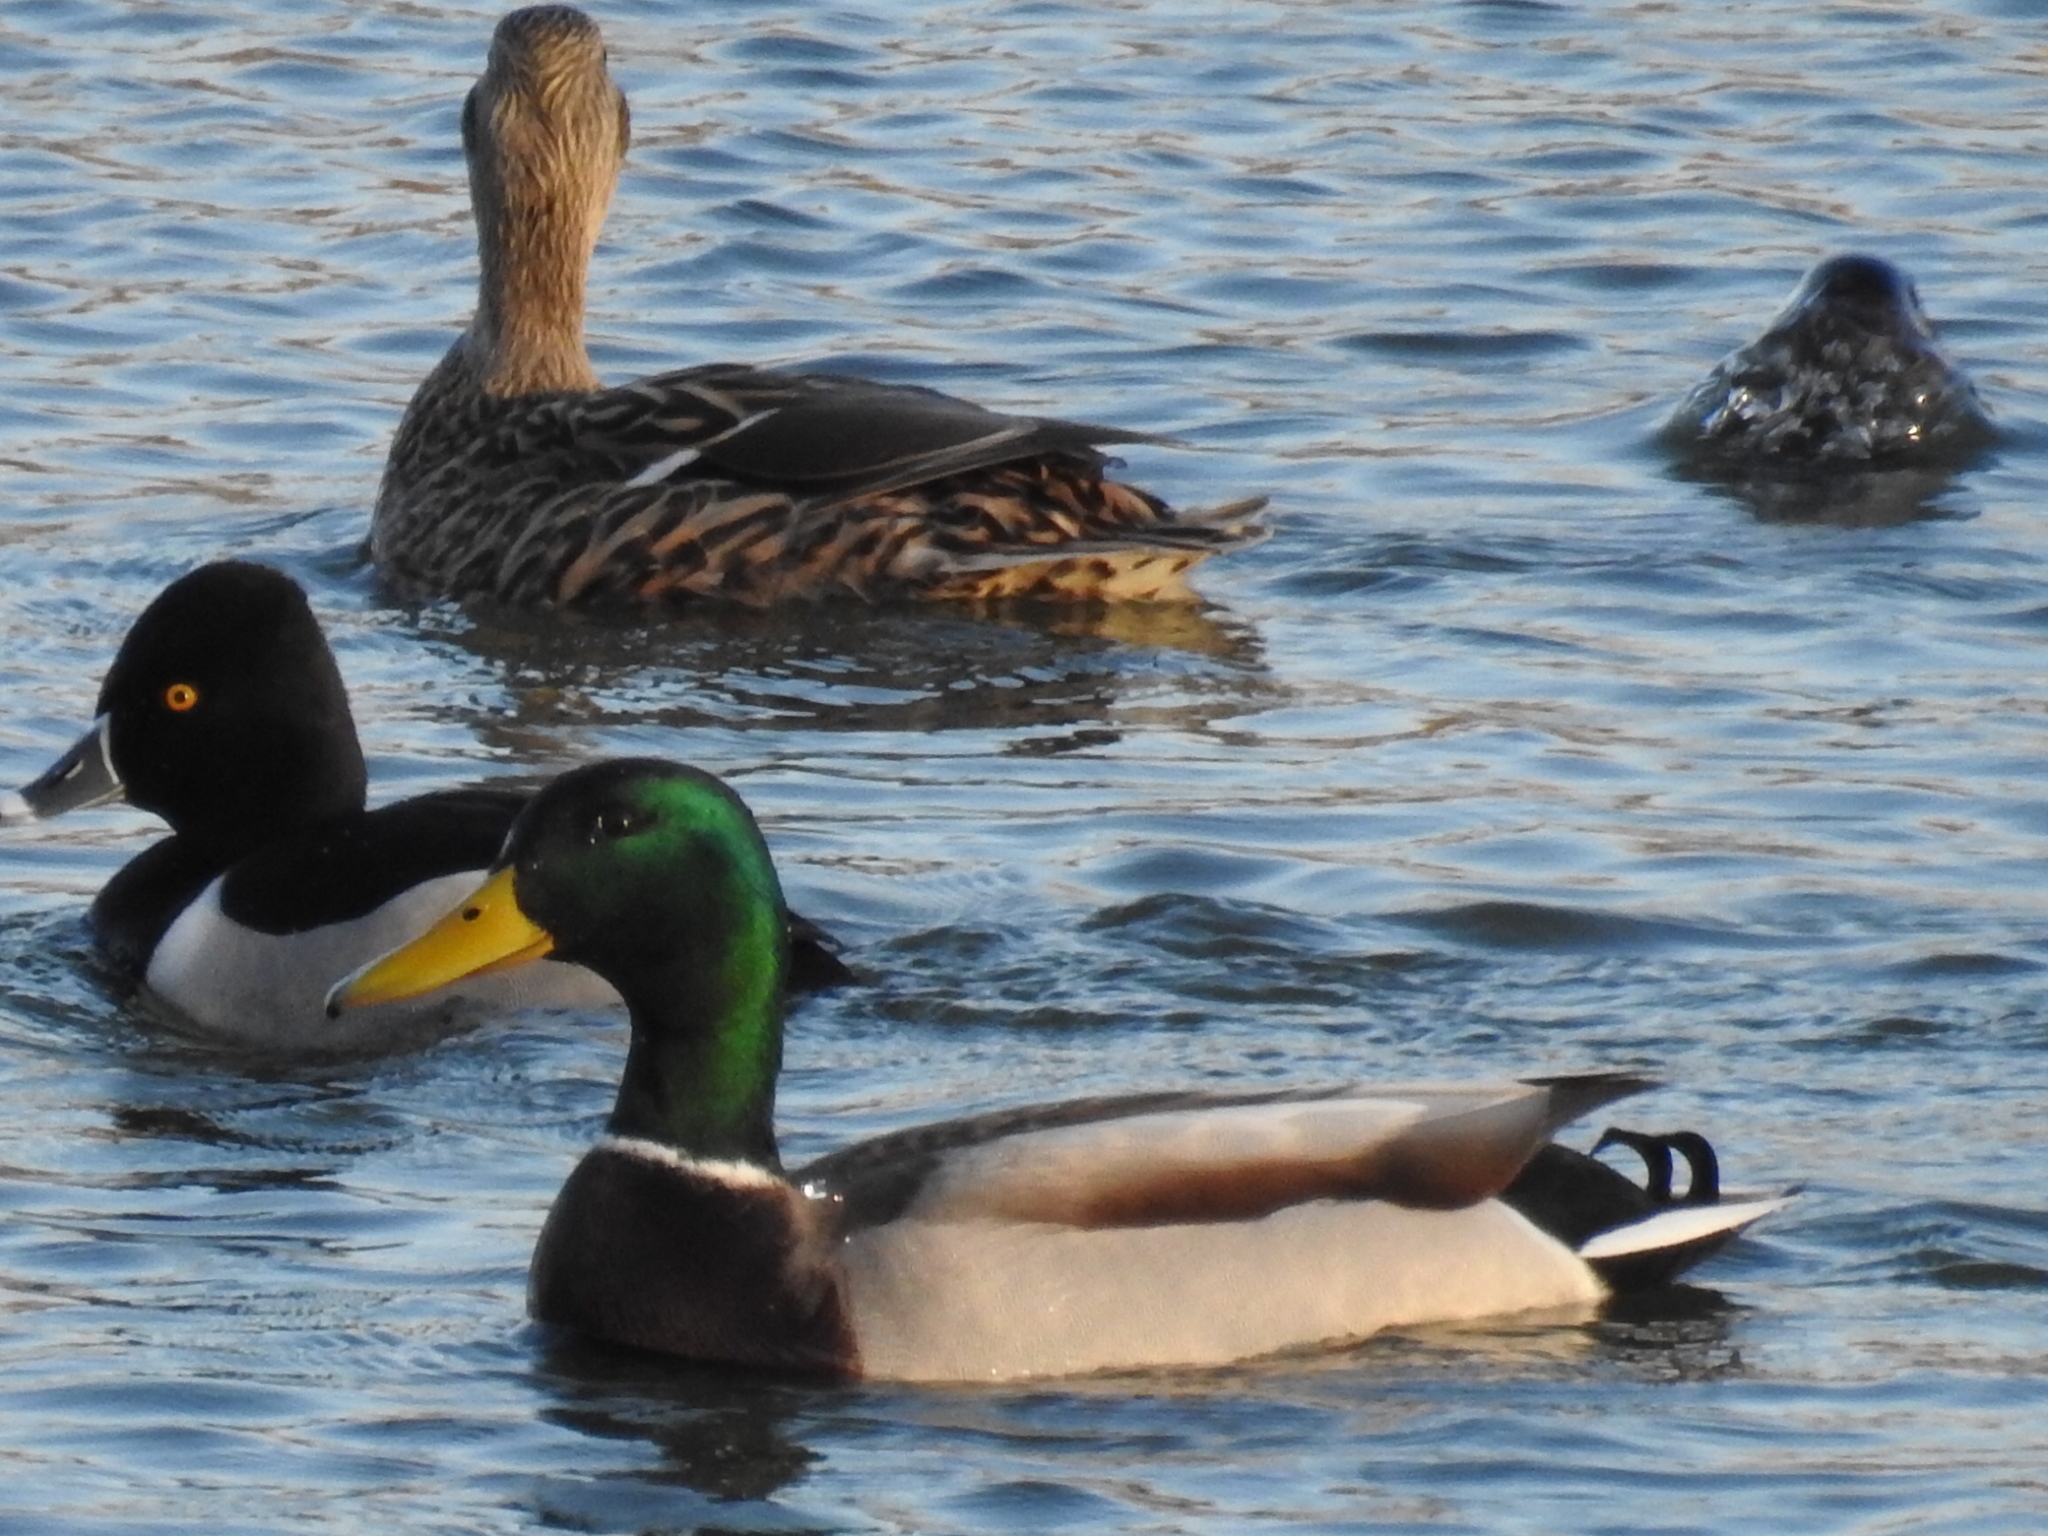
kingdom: Animalia
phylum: Chordata
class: Aves
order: Anseriformes
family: Anatidae
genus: Anas
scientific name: Anas platyrhynchos
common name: Mallard
